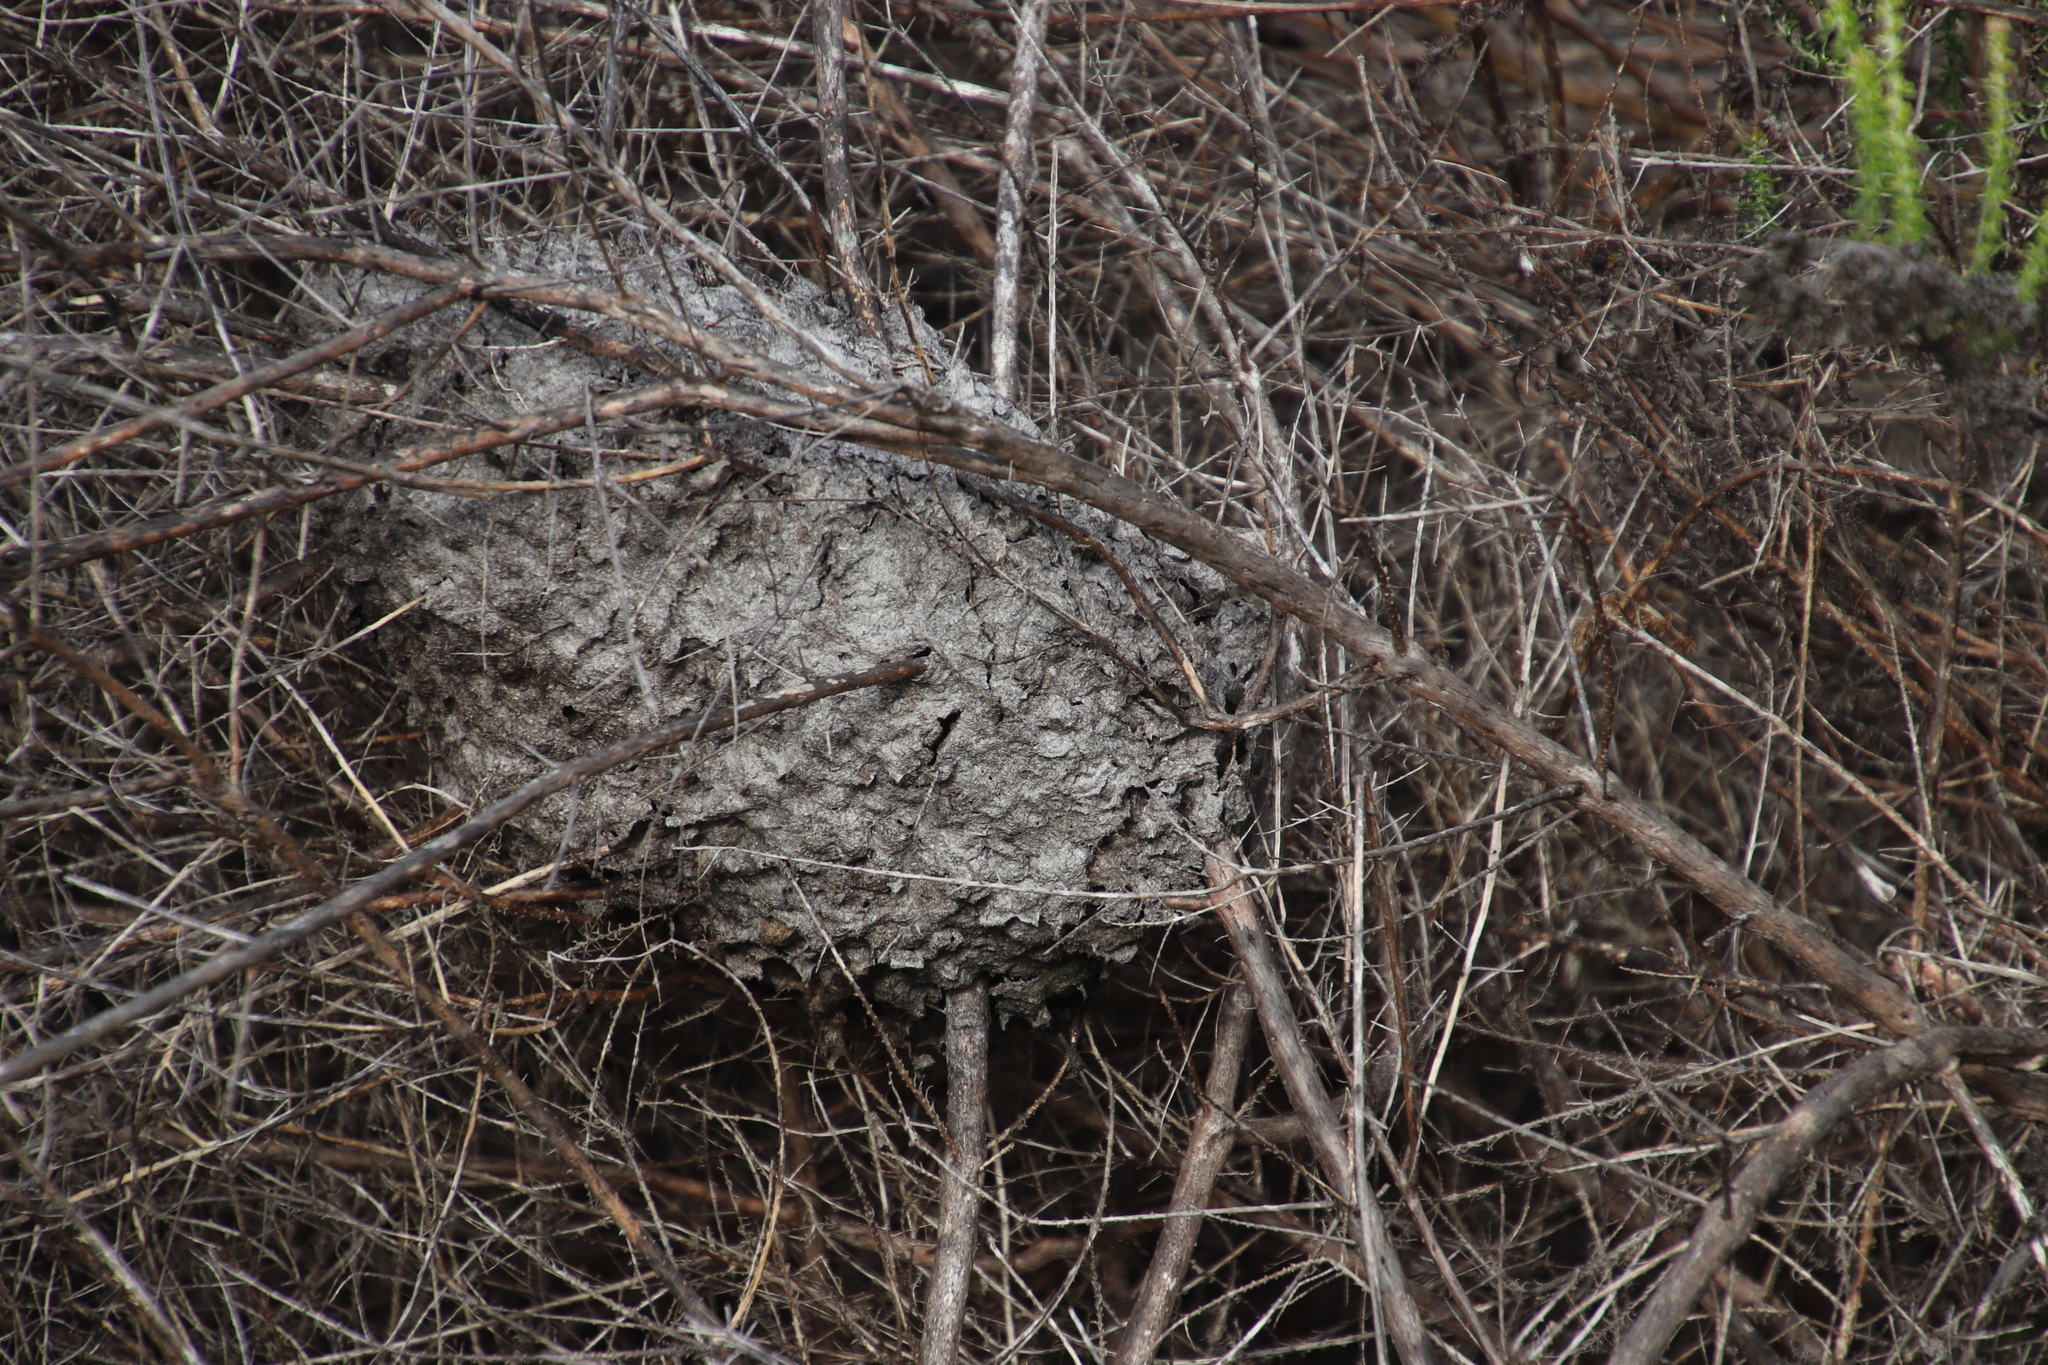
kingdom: Animalia
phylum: Arthropoda
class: Insecta
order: Hymenoptera
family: Formicidae
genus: Crematogaster
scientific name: Crematogaster peringueyi
